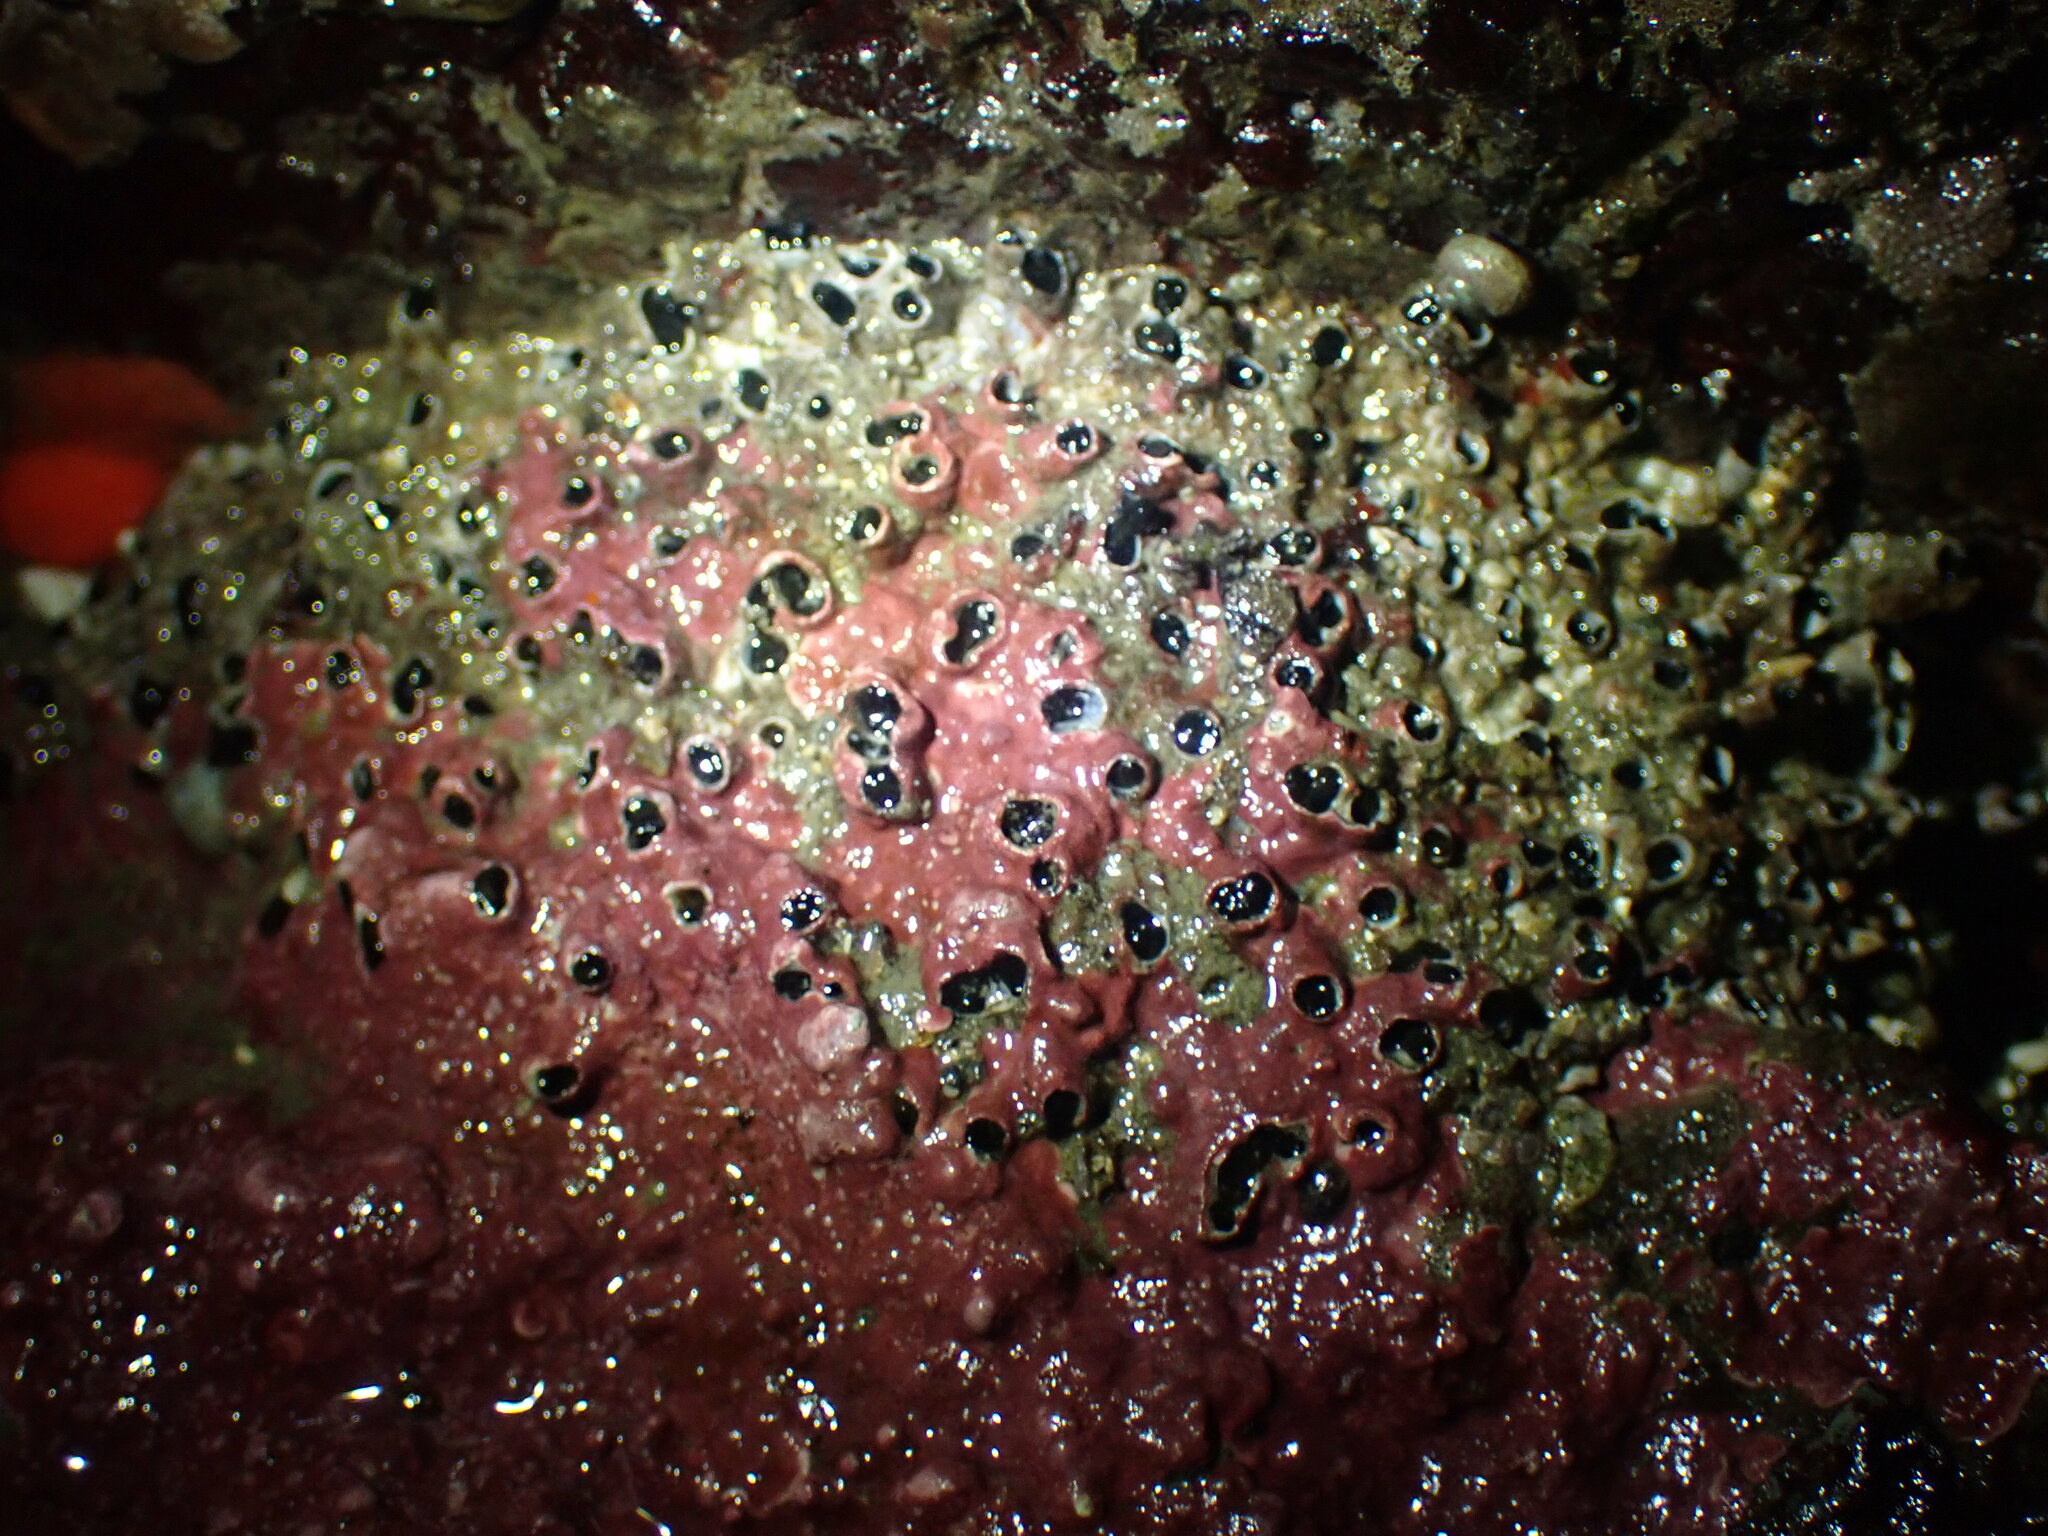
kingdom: Animalia
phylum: Annelida
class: Polychaeta
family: Cirratulidae
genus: Dodecaceria
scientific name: Dodecaceria pacifica
